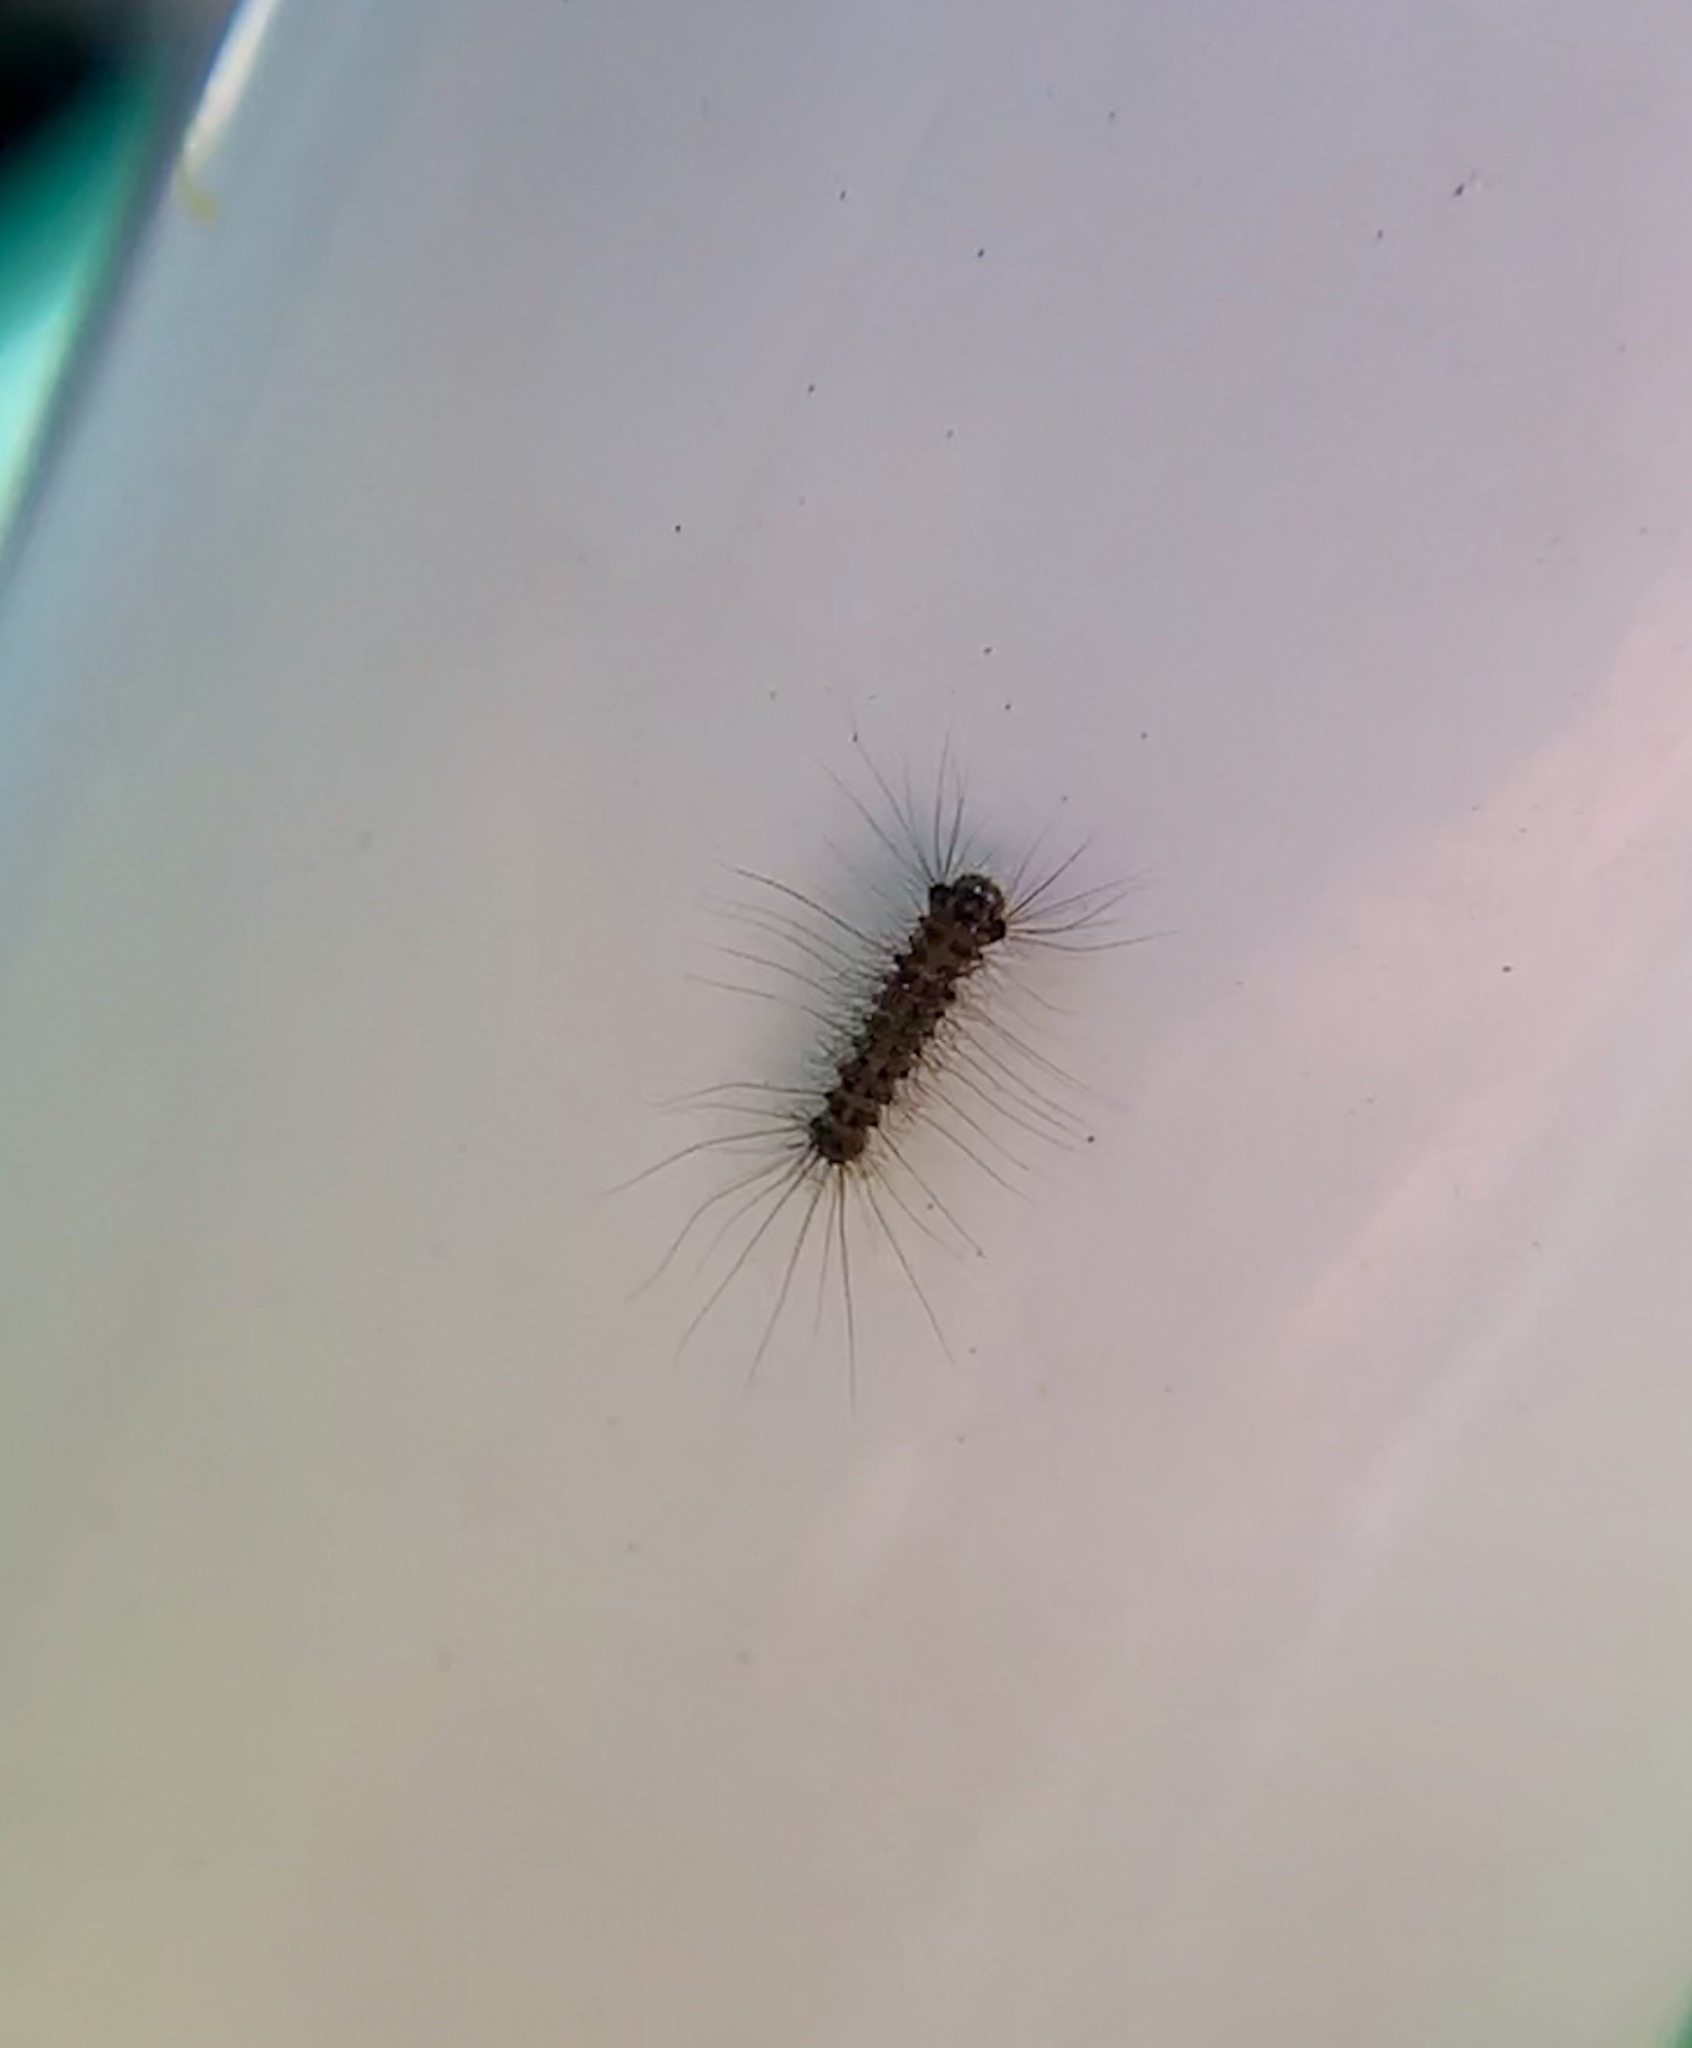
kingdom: Animalia
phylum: Arthropoda
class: Insecta
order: Lepidoptera
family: Erebidae
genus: Lymantria
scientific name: Lymantria dispar
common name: Gypsy moth
